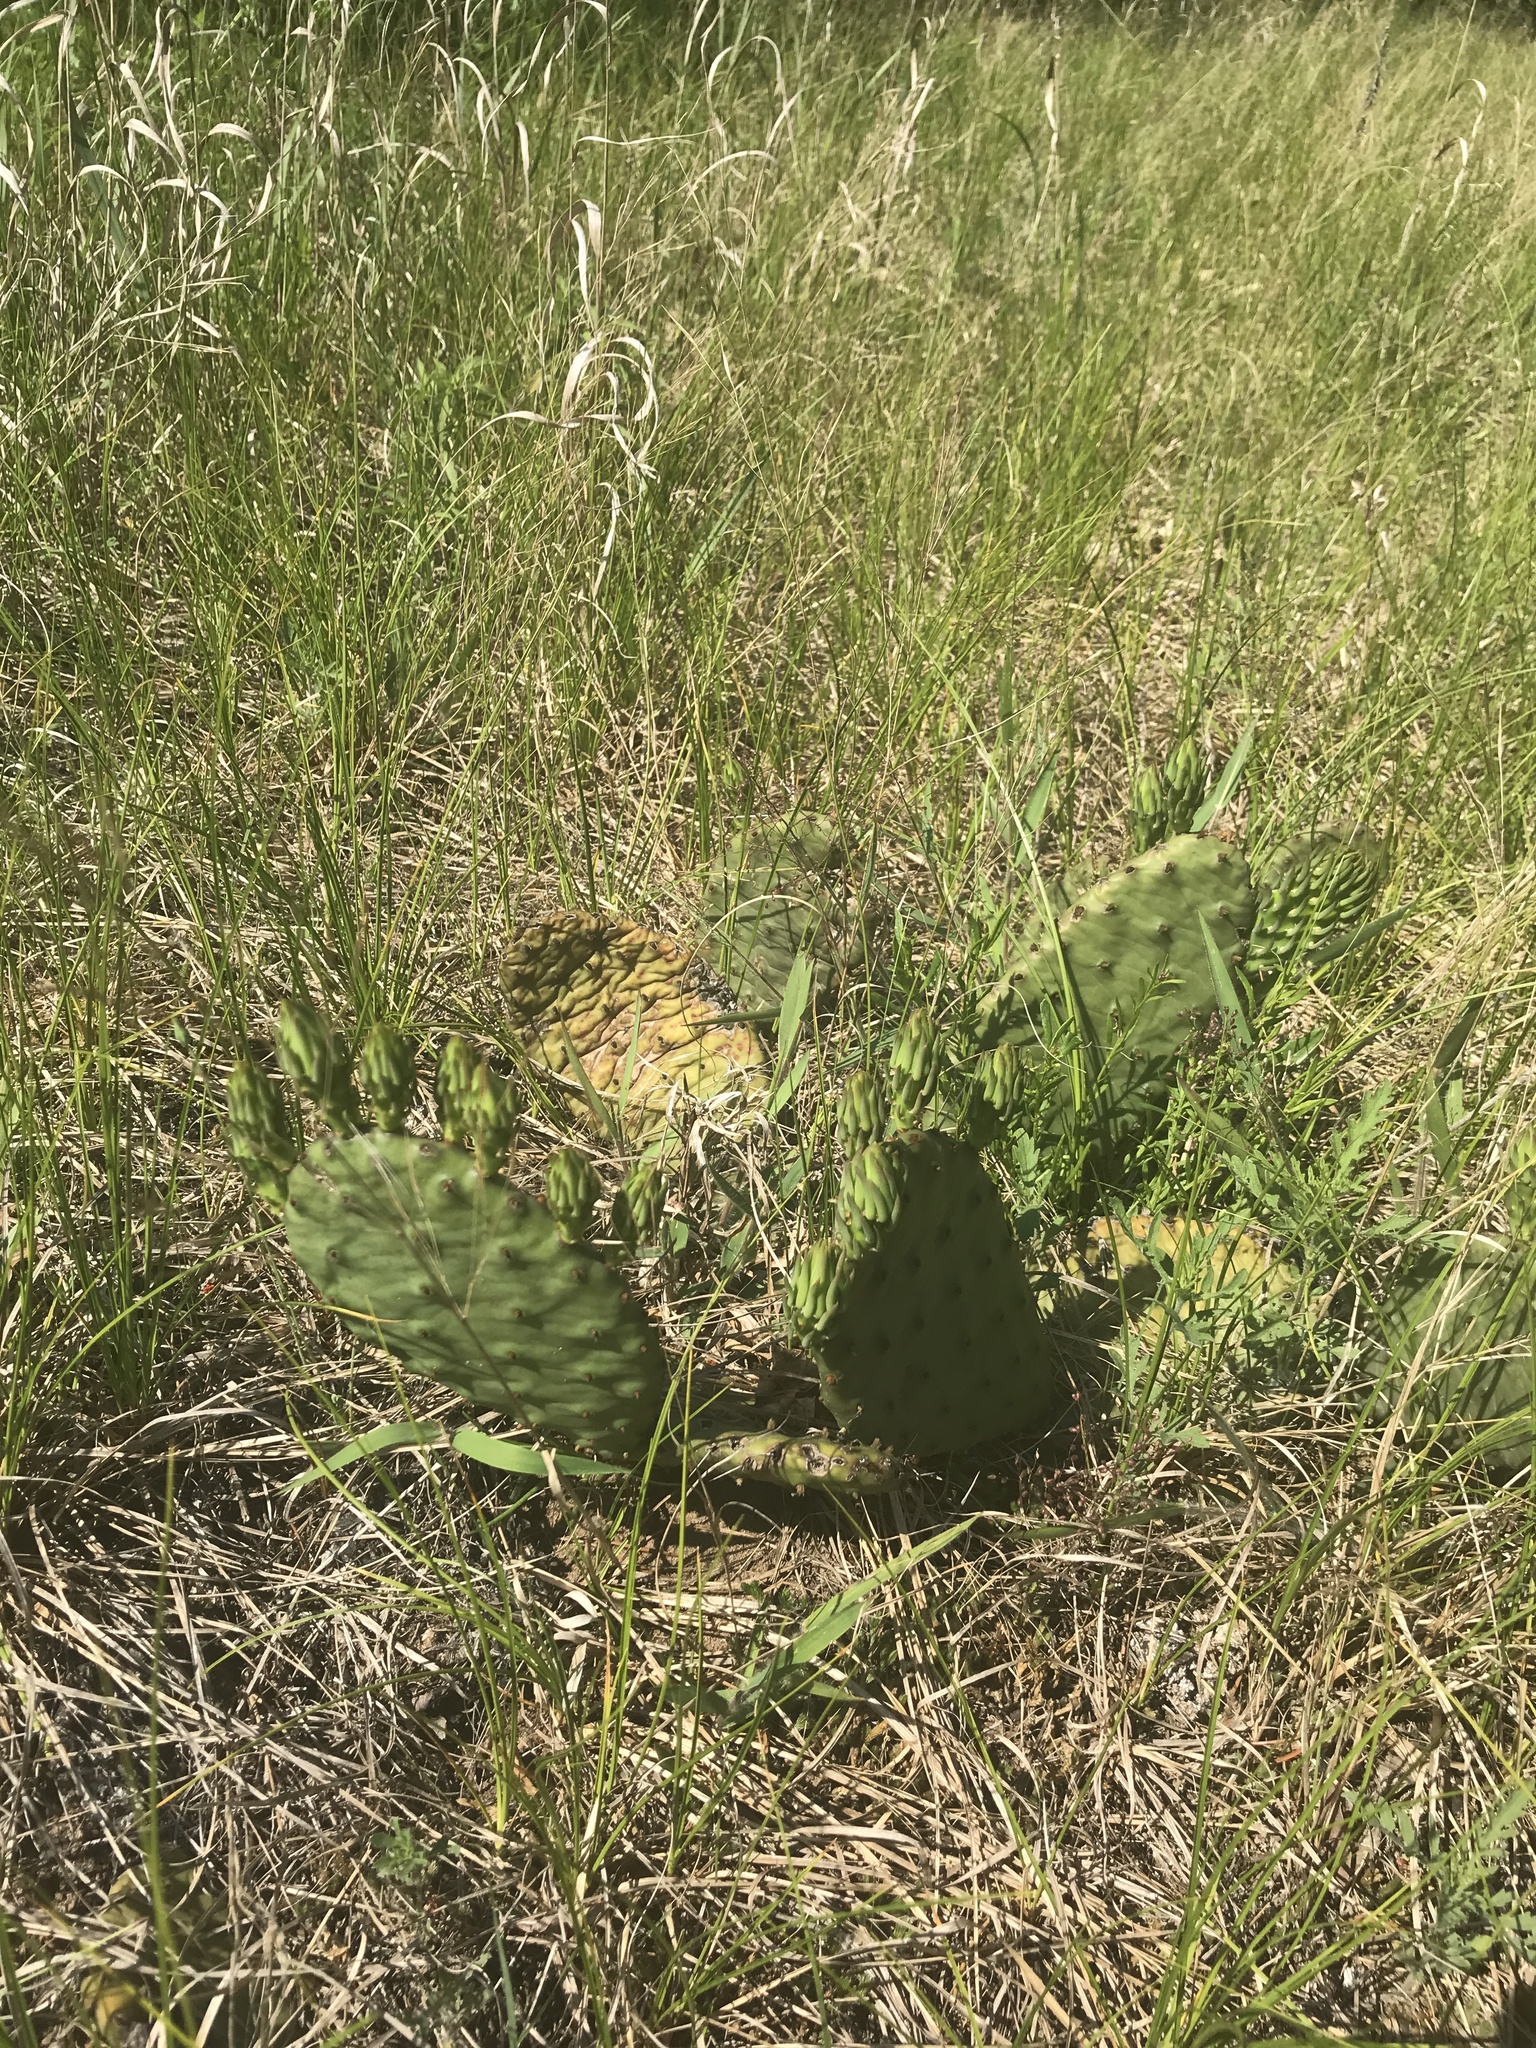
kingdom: Plantae
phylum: Tracheophyta
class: Magnoliopsida
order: Caryophyllales
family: Cactaceae
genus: Opuntia
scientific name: Opuntia macrorhiza
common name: Grassland pricklypear
